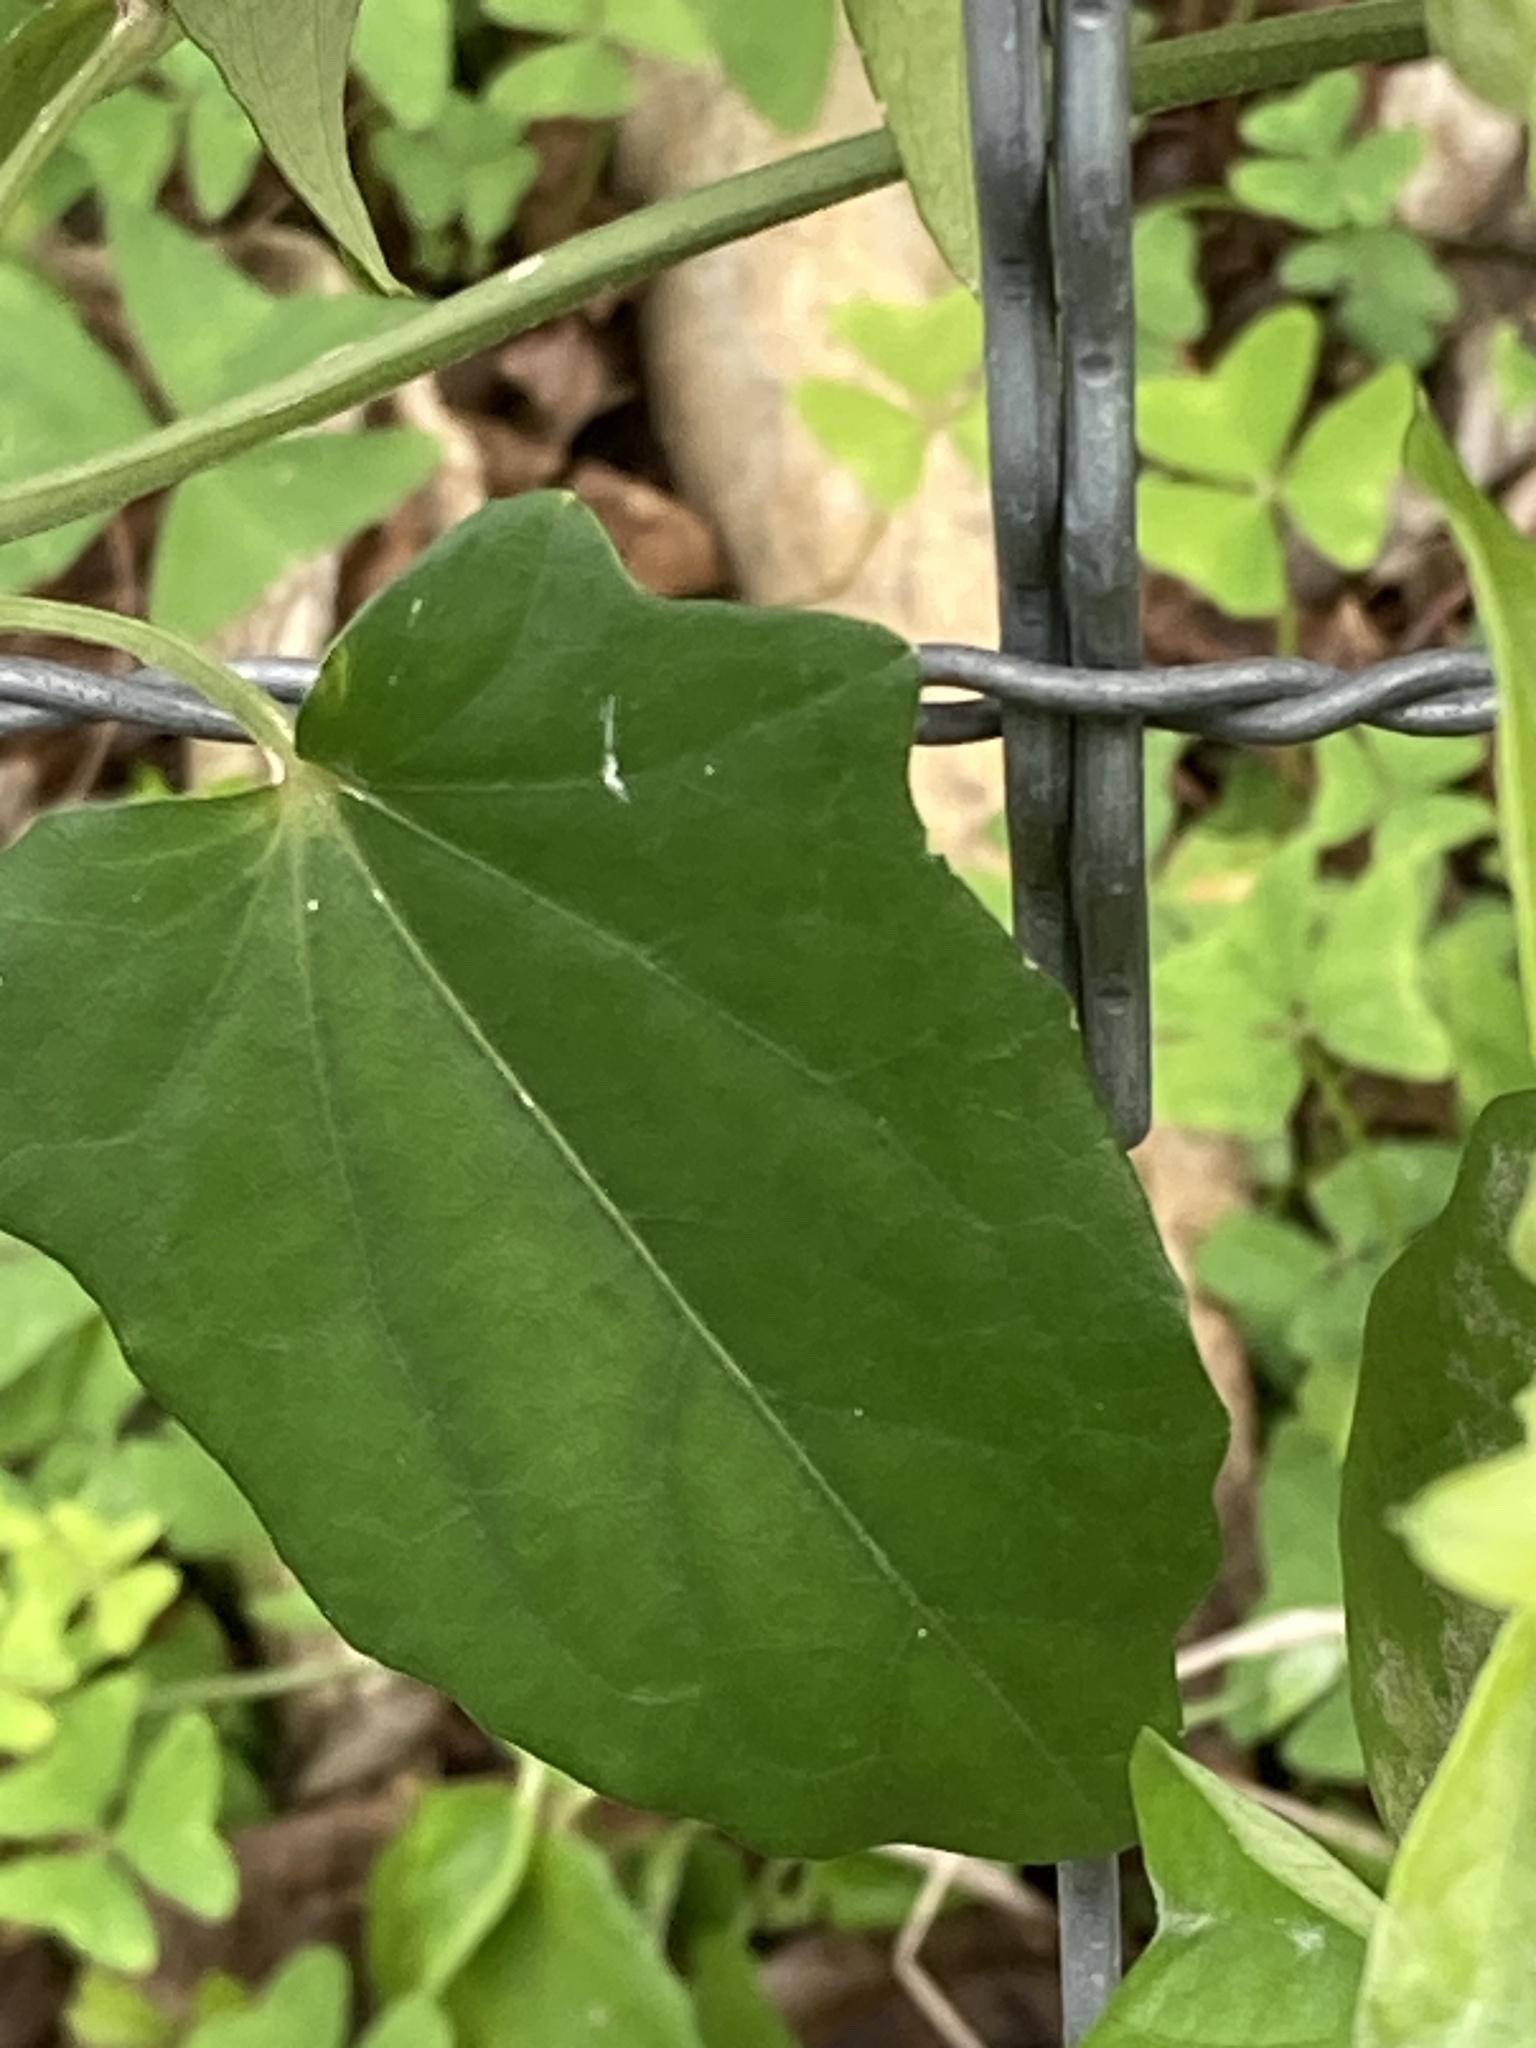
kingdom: Plantae
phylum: Tracheophyta
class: Magnoliopsida
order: Lamiales
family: Acanthaceae
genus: Thunbergia
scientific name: Thunbergia fragrans
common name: Whitelady
